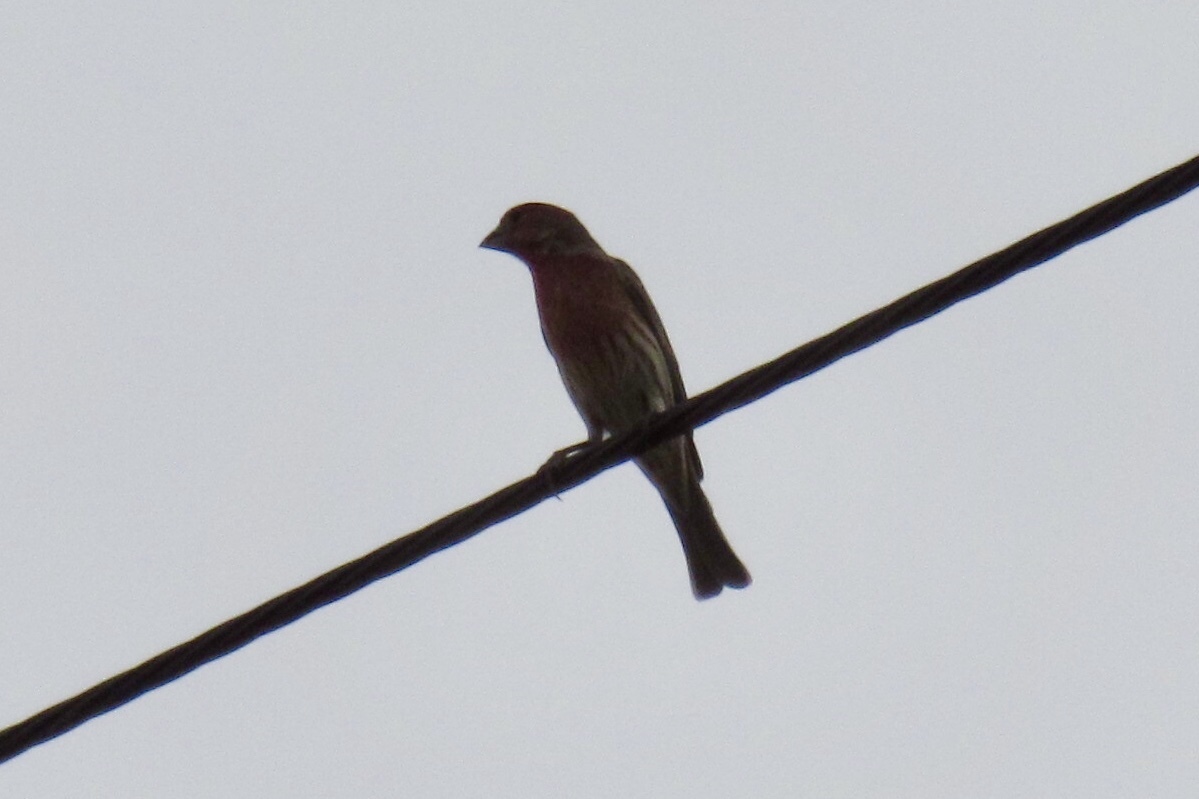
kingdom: Animalia
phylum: Chordata
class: Aves
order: Passeriformes
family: Fringillidae
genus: Haemorhous
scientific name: Haemorhous mexicanus
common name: House finch
